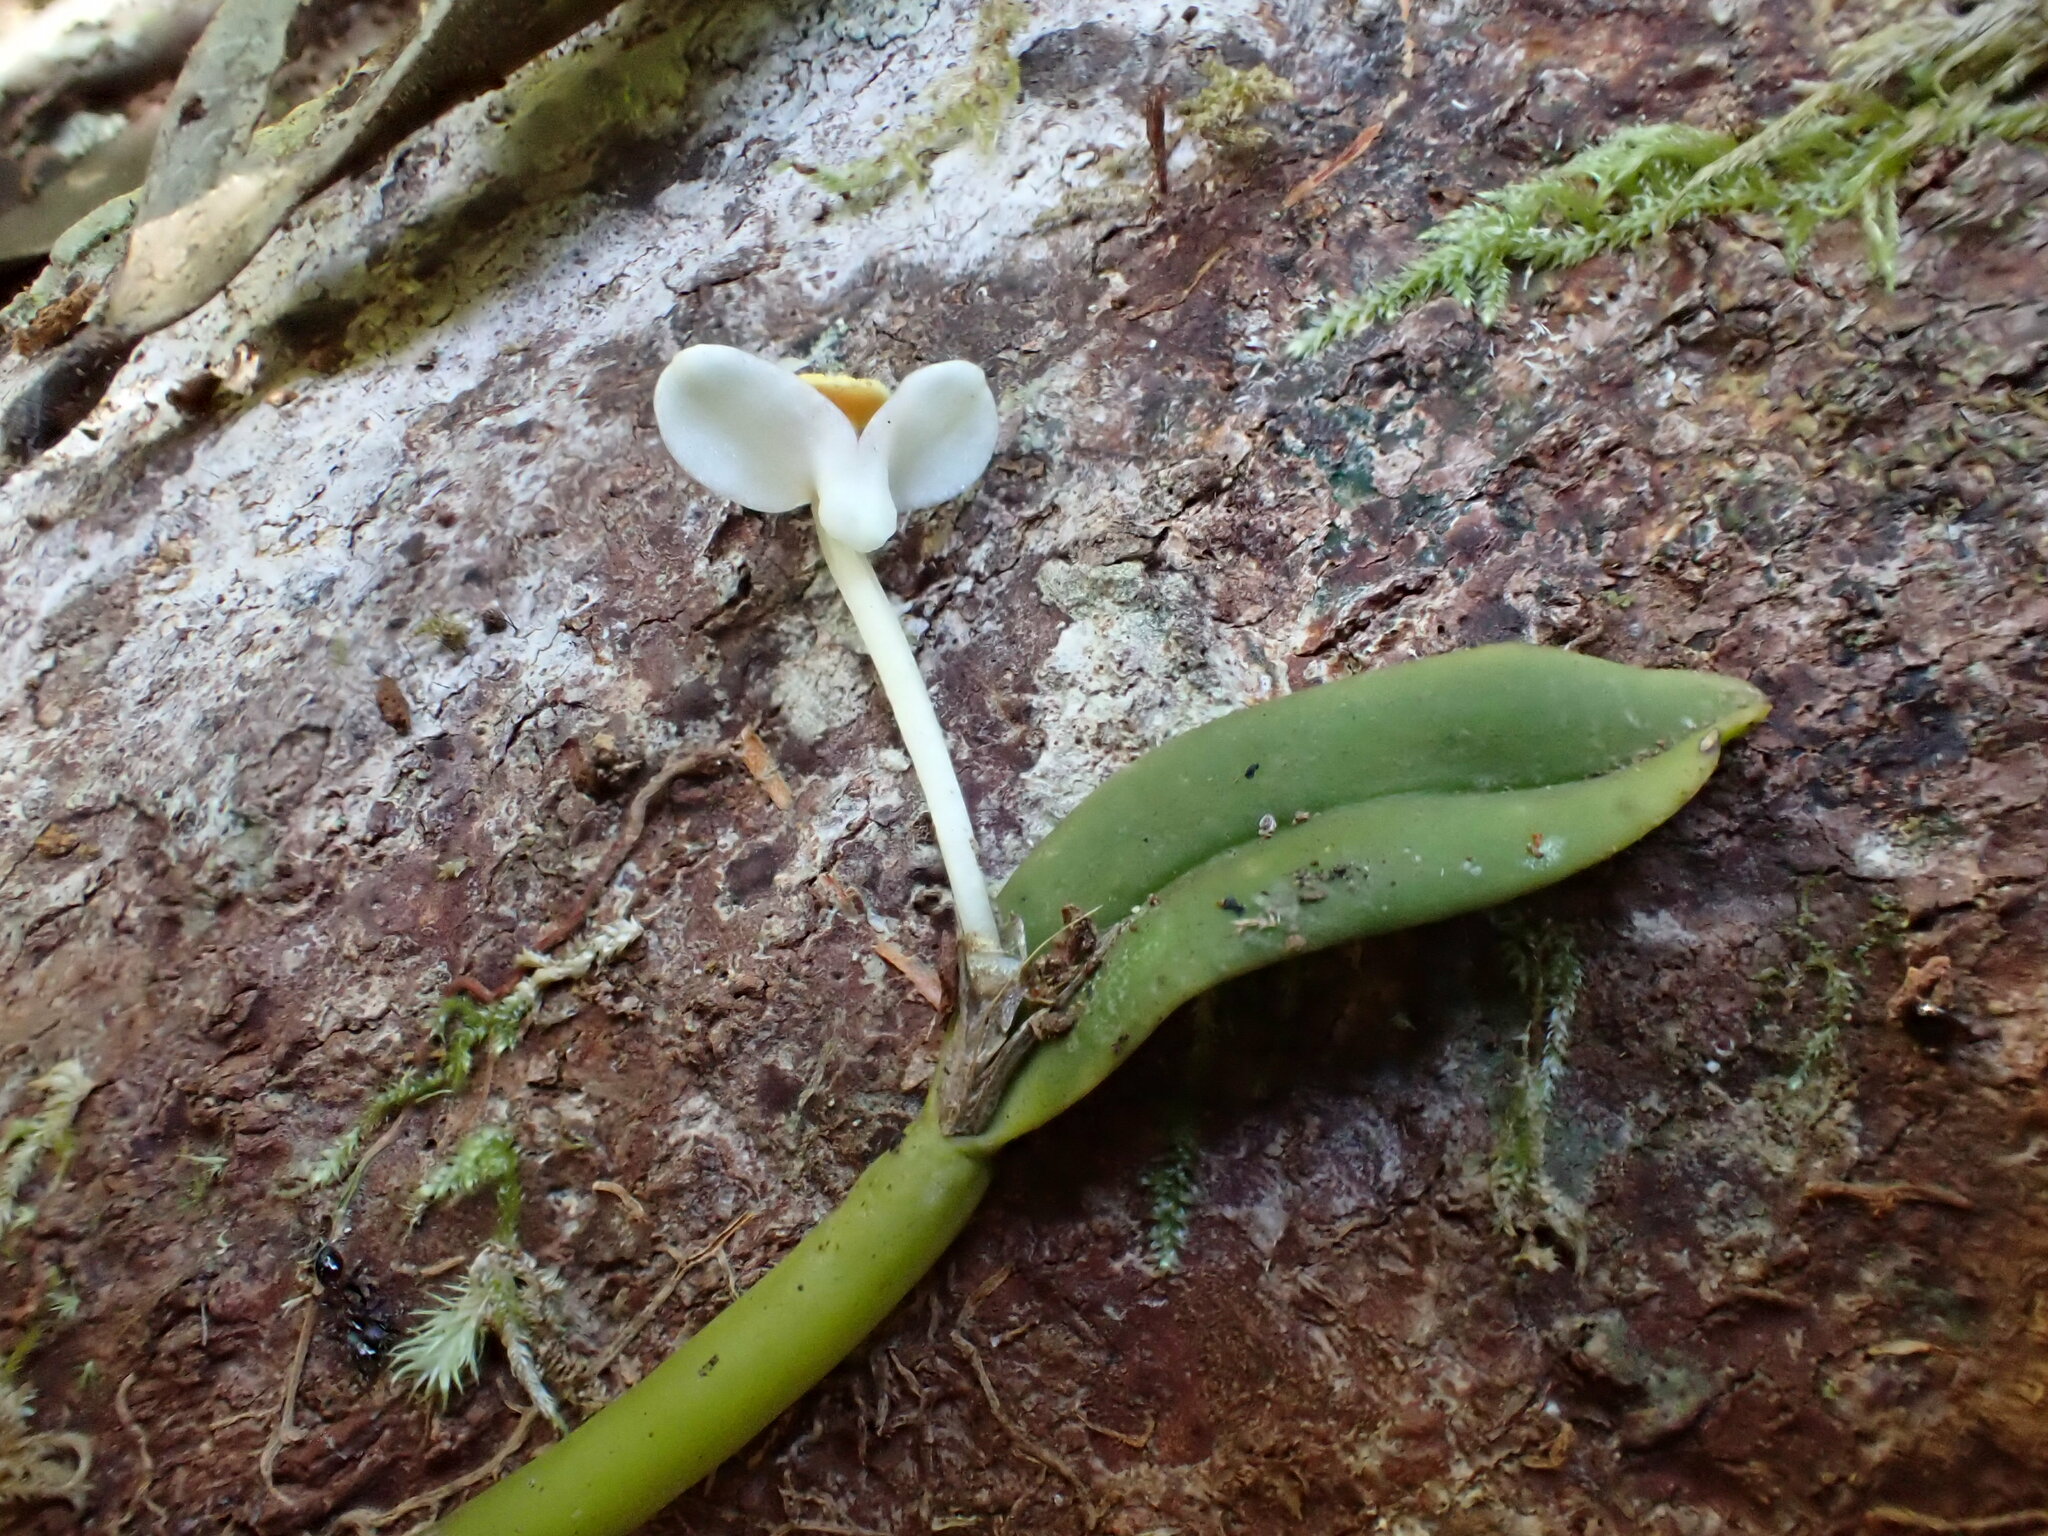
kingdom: Plantae
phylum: Tracheophyta
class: Liliopsida
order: Asparagales
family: Orchidaceae
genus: Dendrobium
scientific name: Dendrobium taylorii
